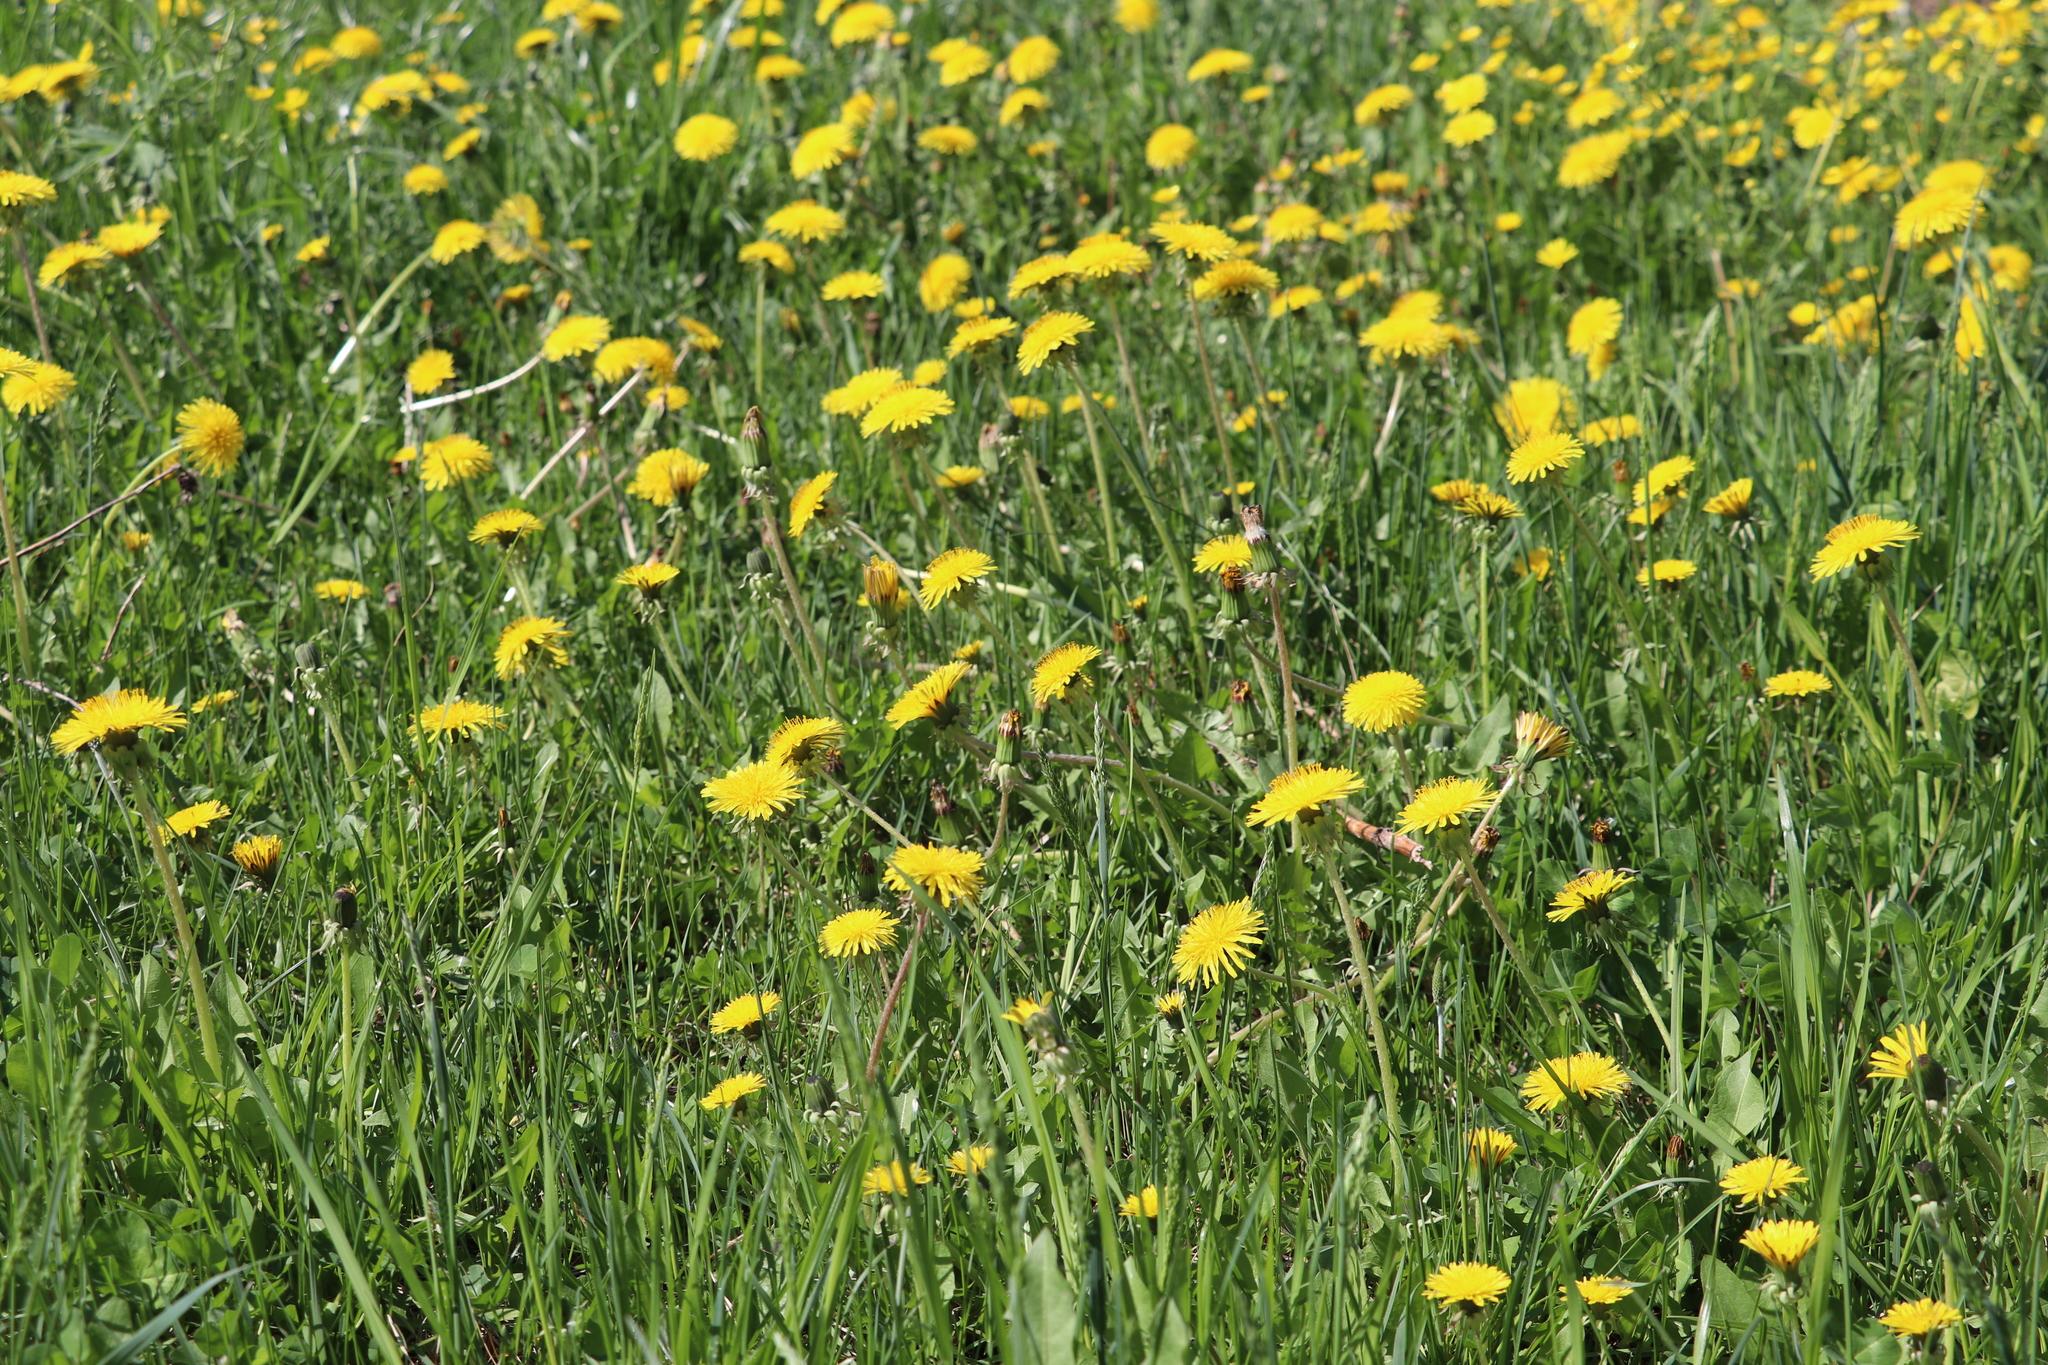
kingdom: Plantae
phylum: Tracheophyta
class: Magnoliopsida
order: Asterales
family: Asteraceae
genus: Taraxacum
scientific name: Taraxacum officinale
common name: Common dandelion
